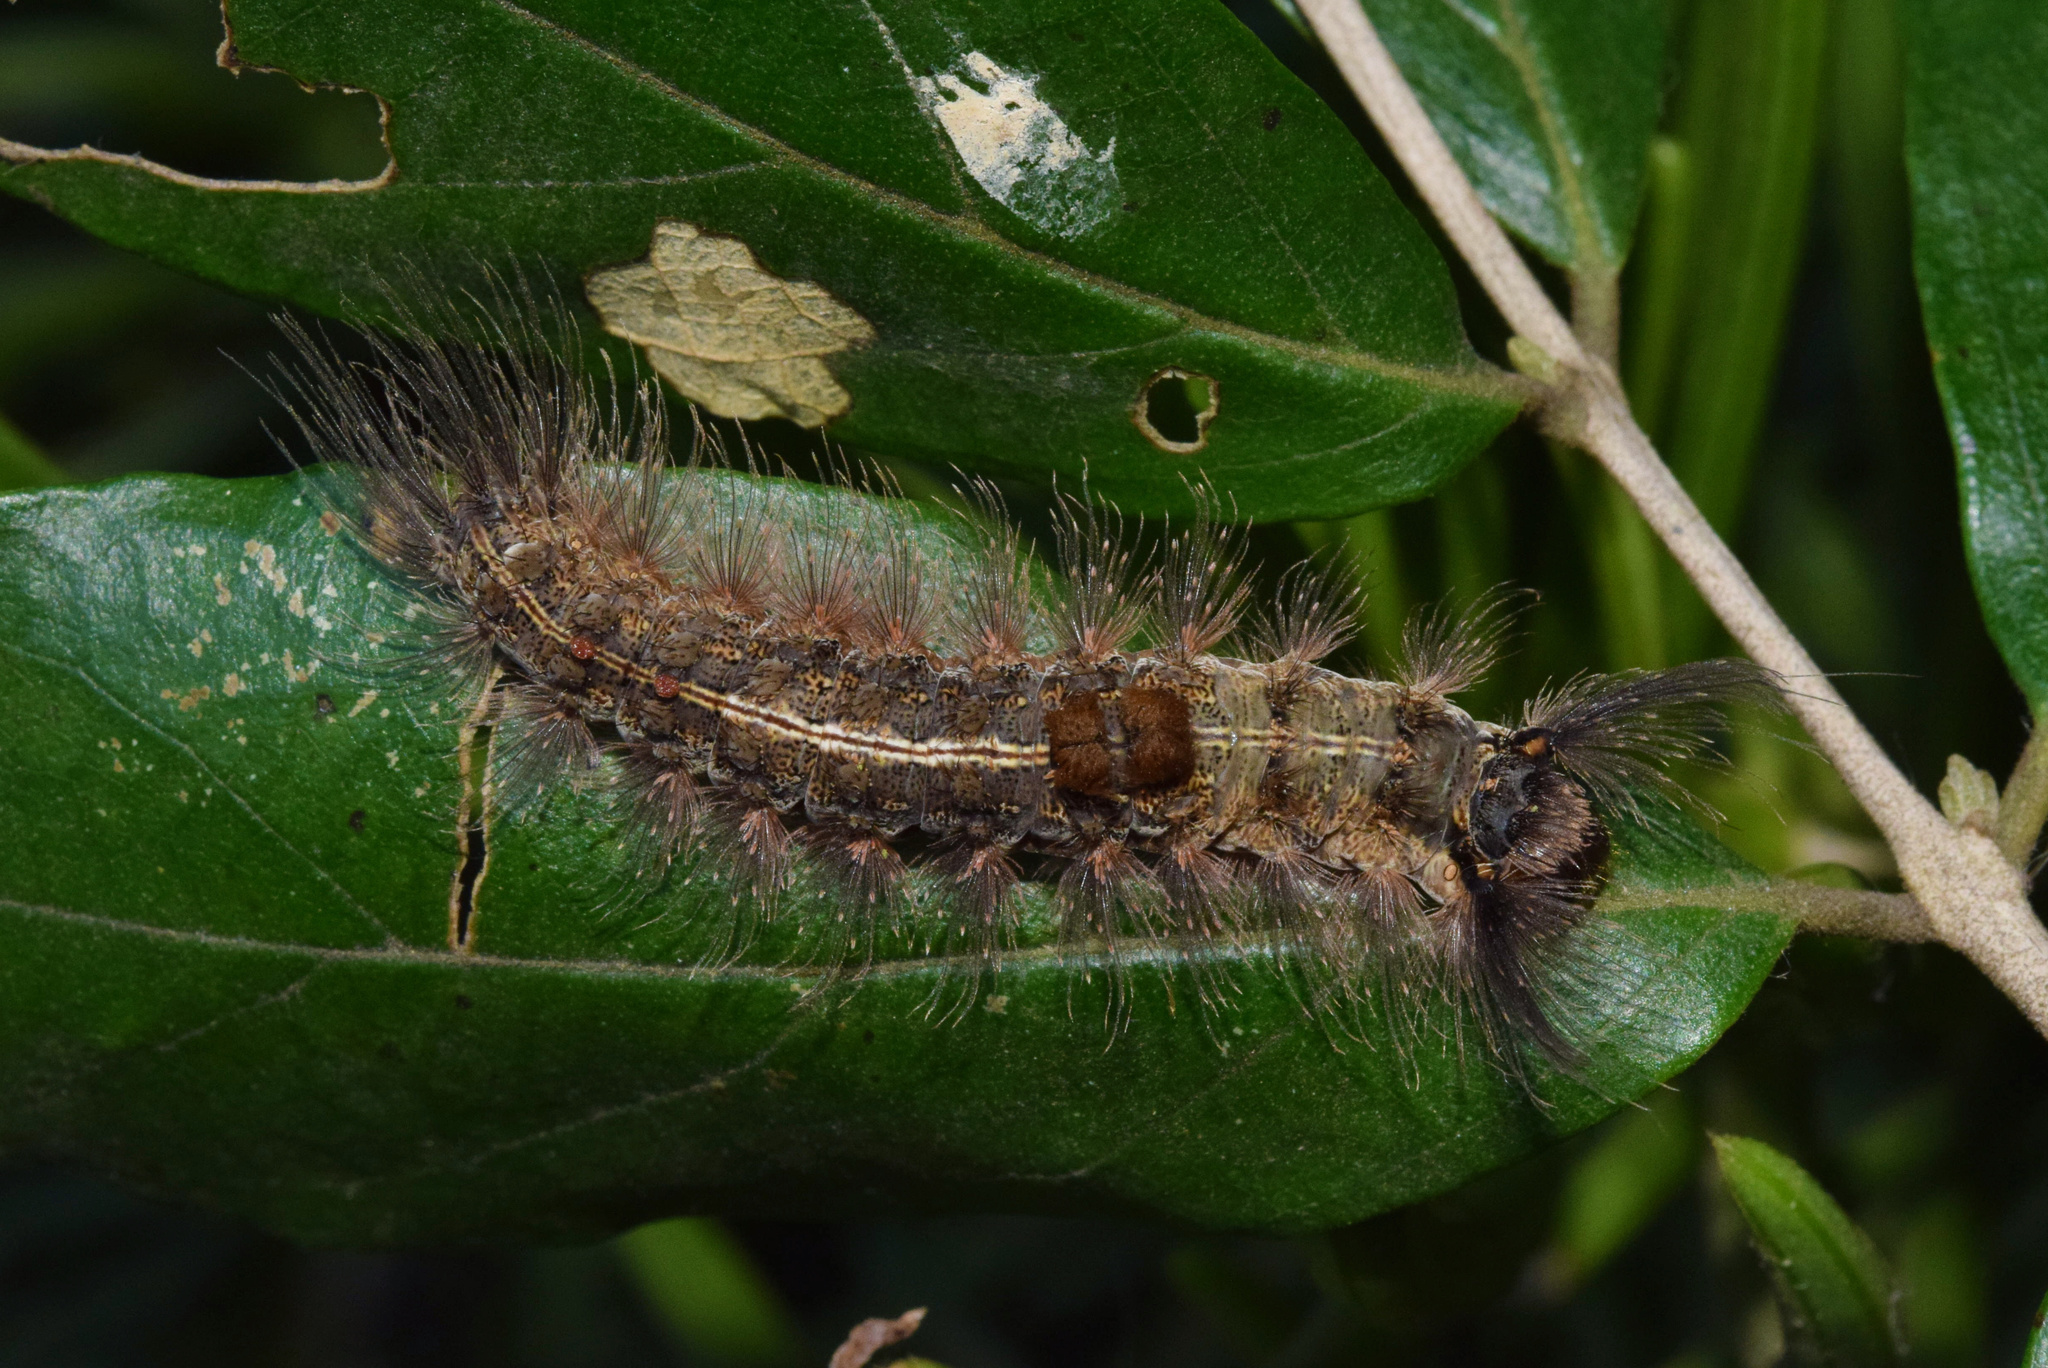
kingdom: Animalia
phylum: Arthropoda
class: Insecta
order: Lepidoptera
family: Erebidae
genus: Dasychira
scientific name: Dasychira rocana
